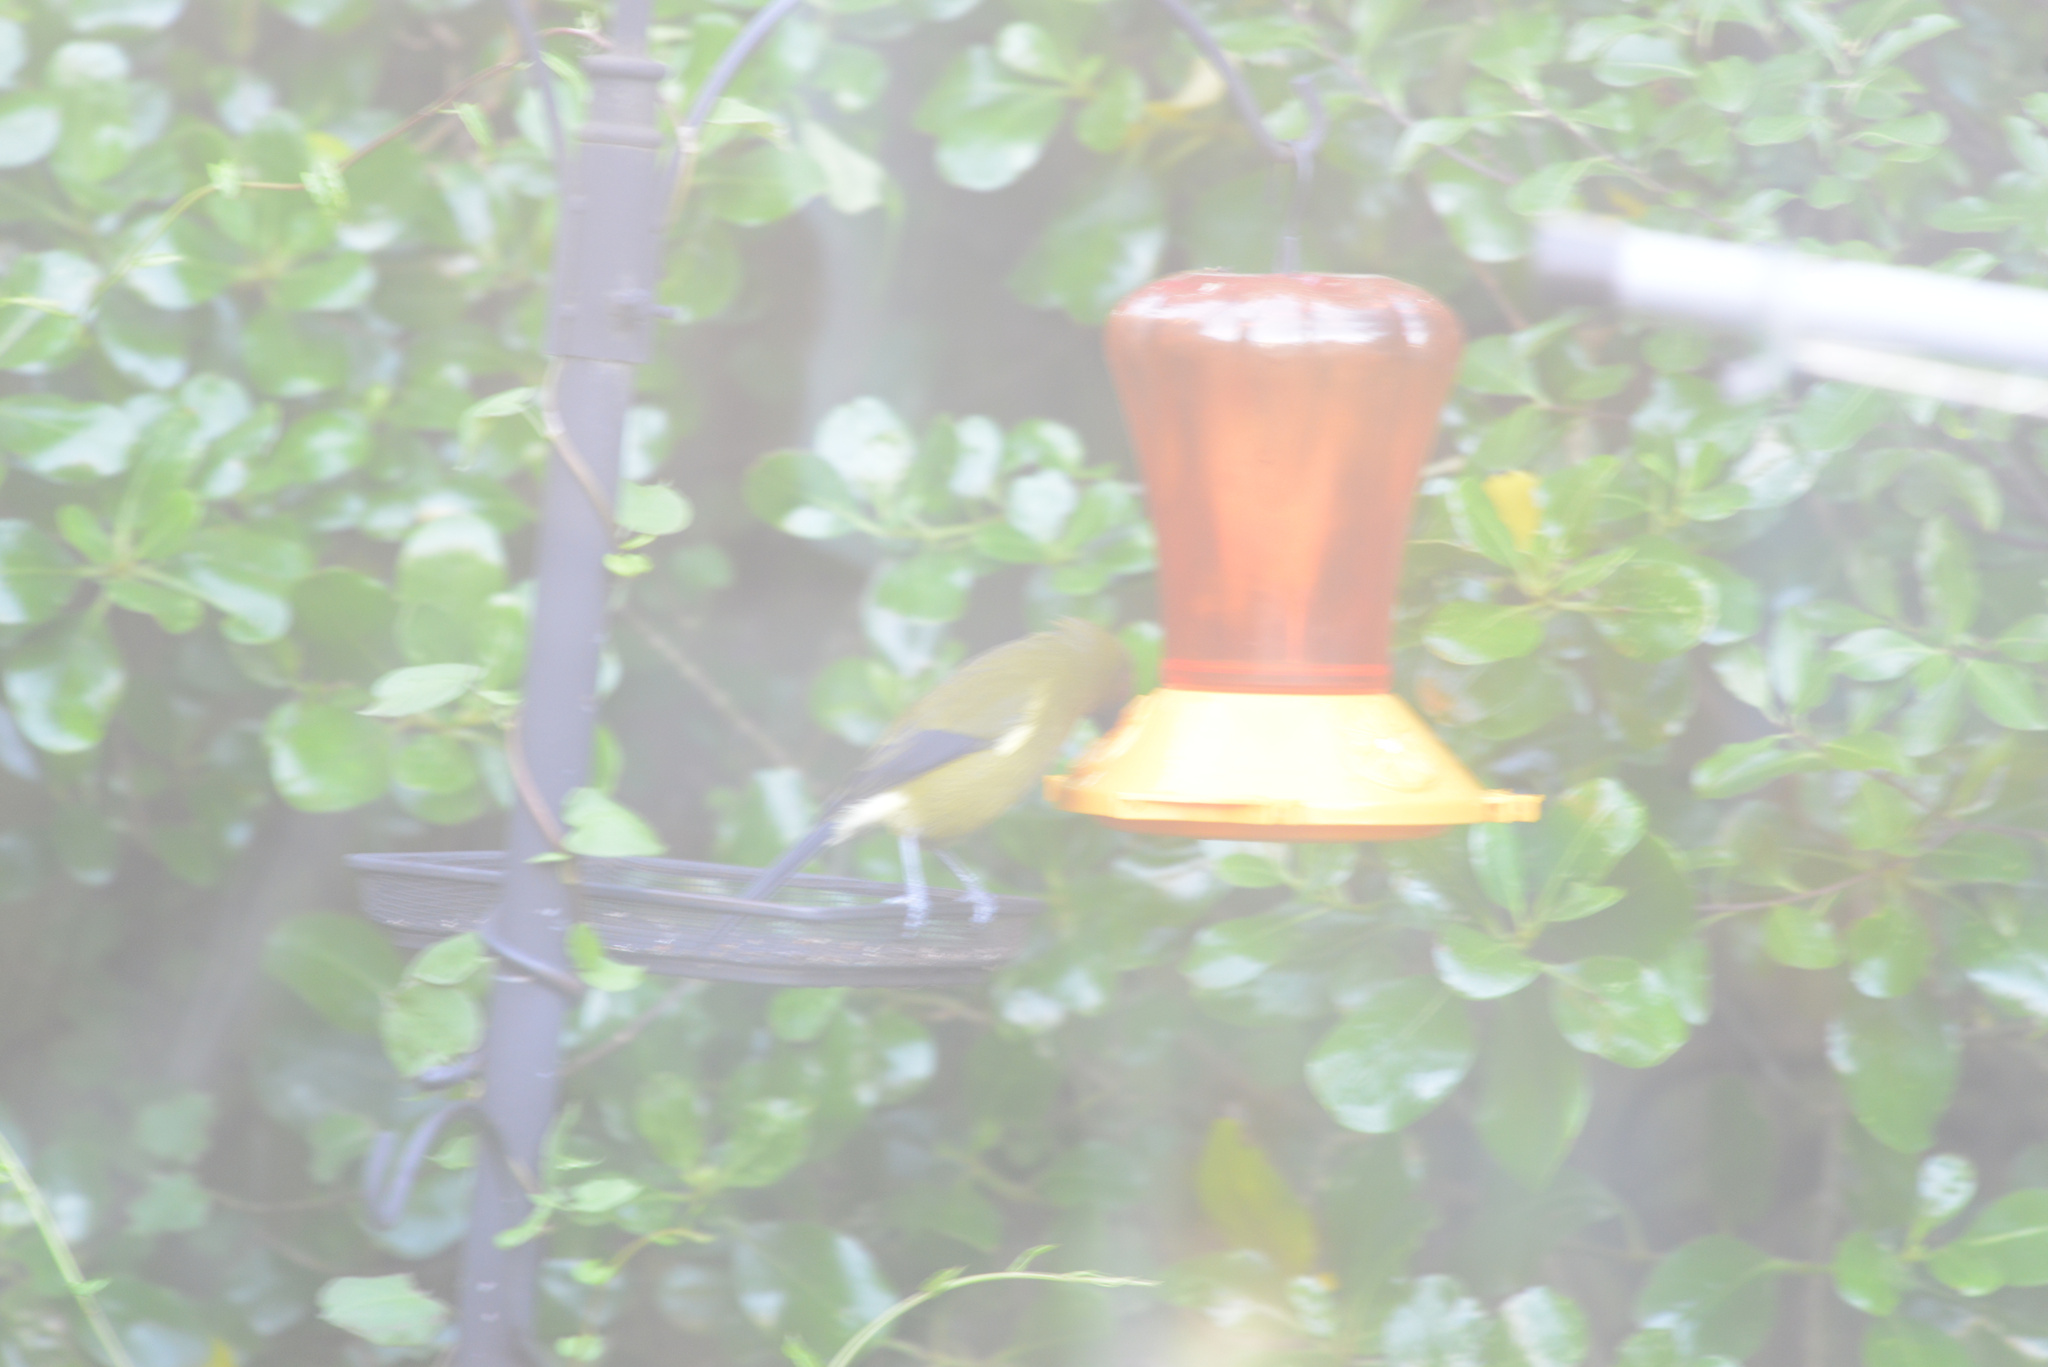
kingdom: Animalia
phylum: Chordata
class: Aves
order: Passeriformes
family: Meliphagidae
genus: Anthornis
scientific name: Anthornis melanura
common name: New zealand bellbird
